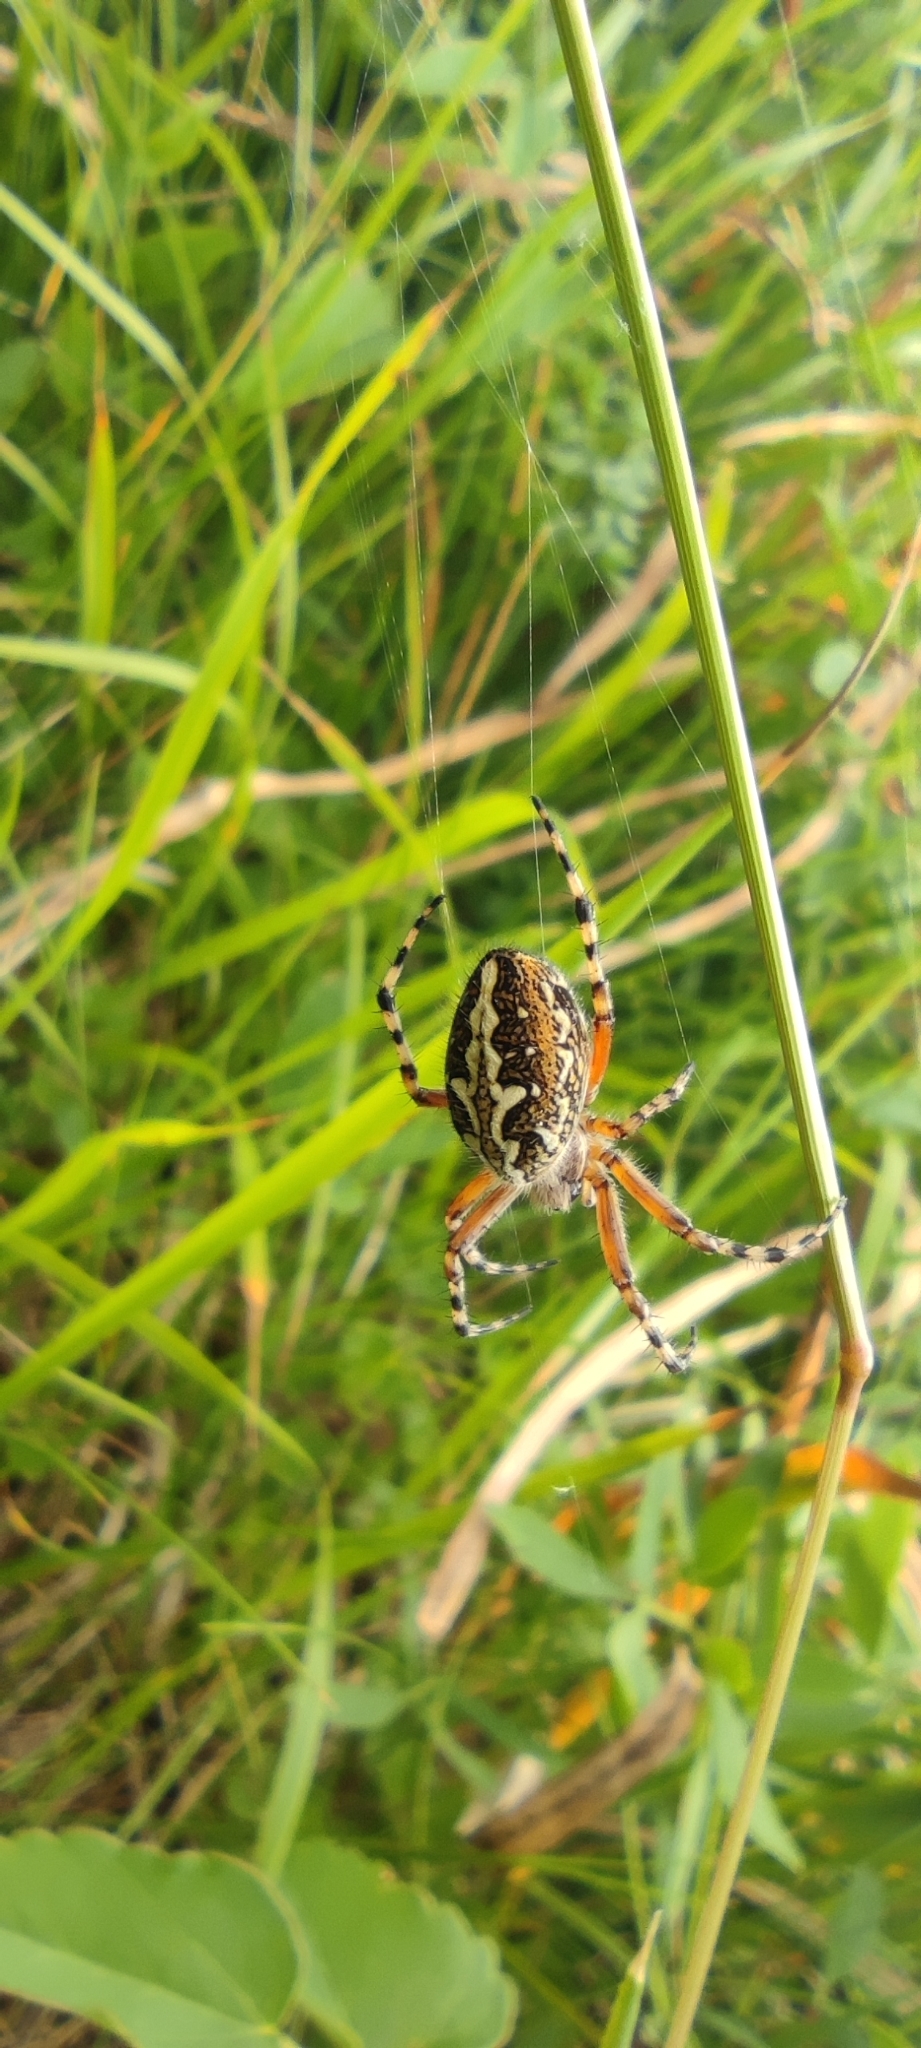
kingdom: Animalia
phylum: Arthropoda
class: Arachnida
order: Araneae
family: Araneidae
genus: Aculepeira
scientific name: Aculepeira ceropegia
